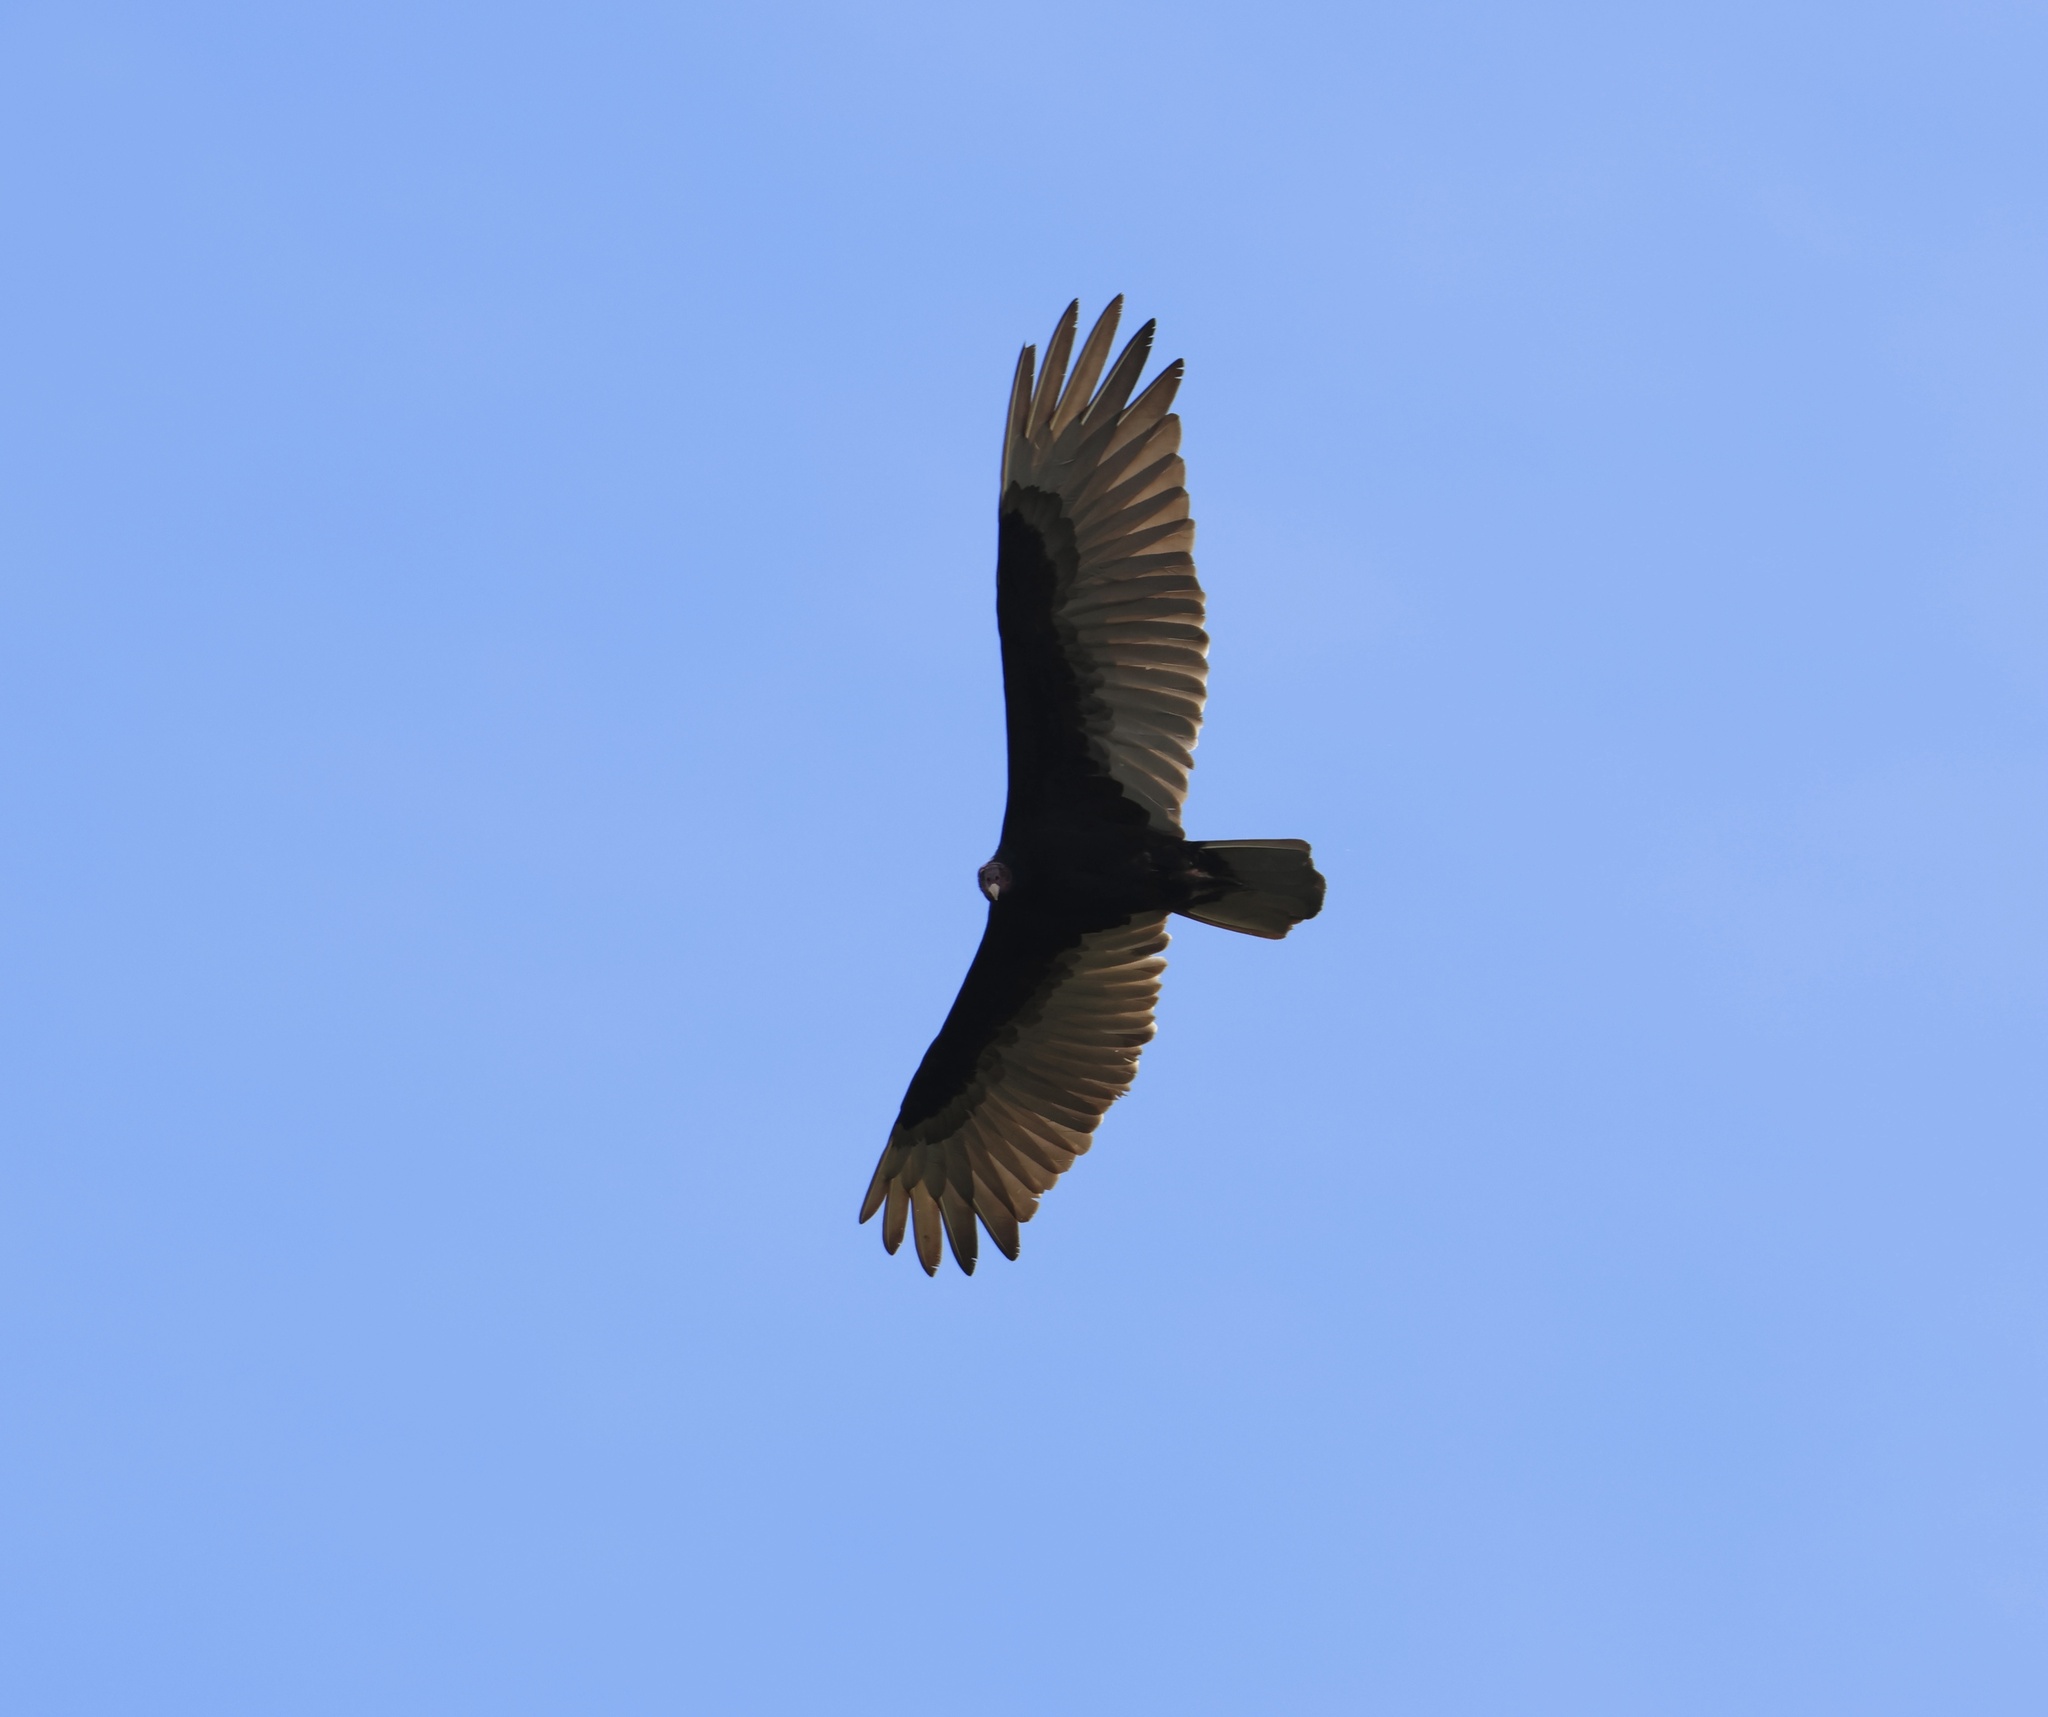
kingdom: Animalia
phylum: Chordata
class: Aves
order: Accipitriformes
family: Cathartidae
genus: Cathartes
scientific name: Cathartes aura
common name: Turkey vulture
